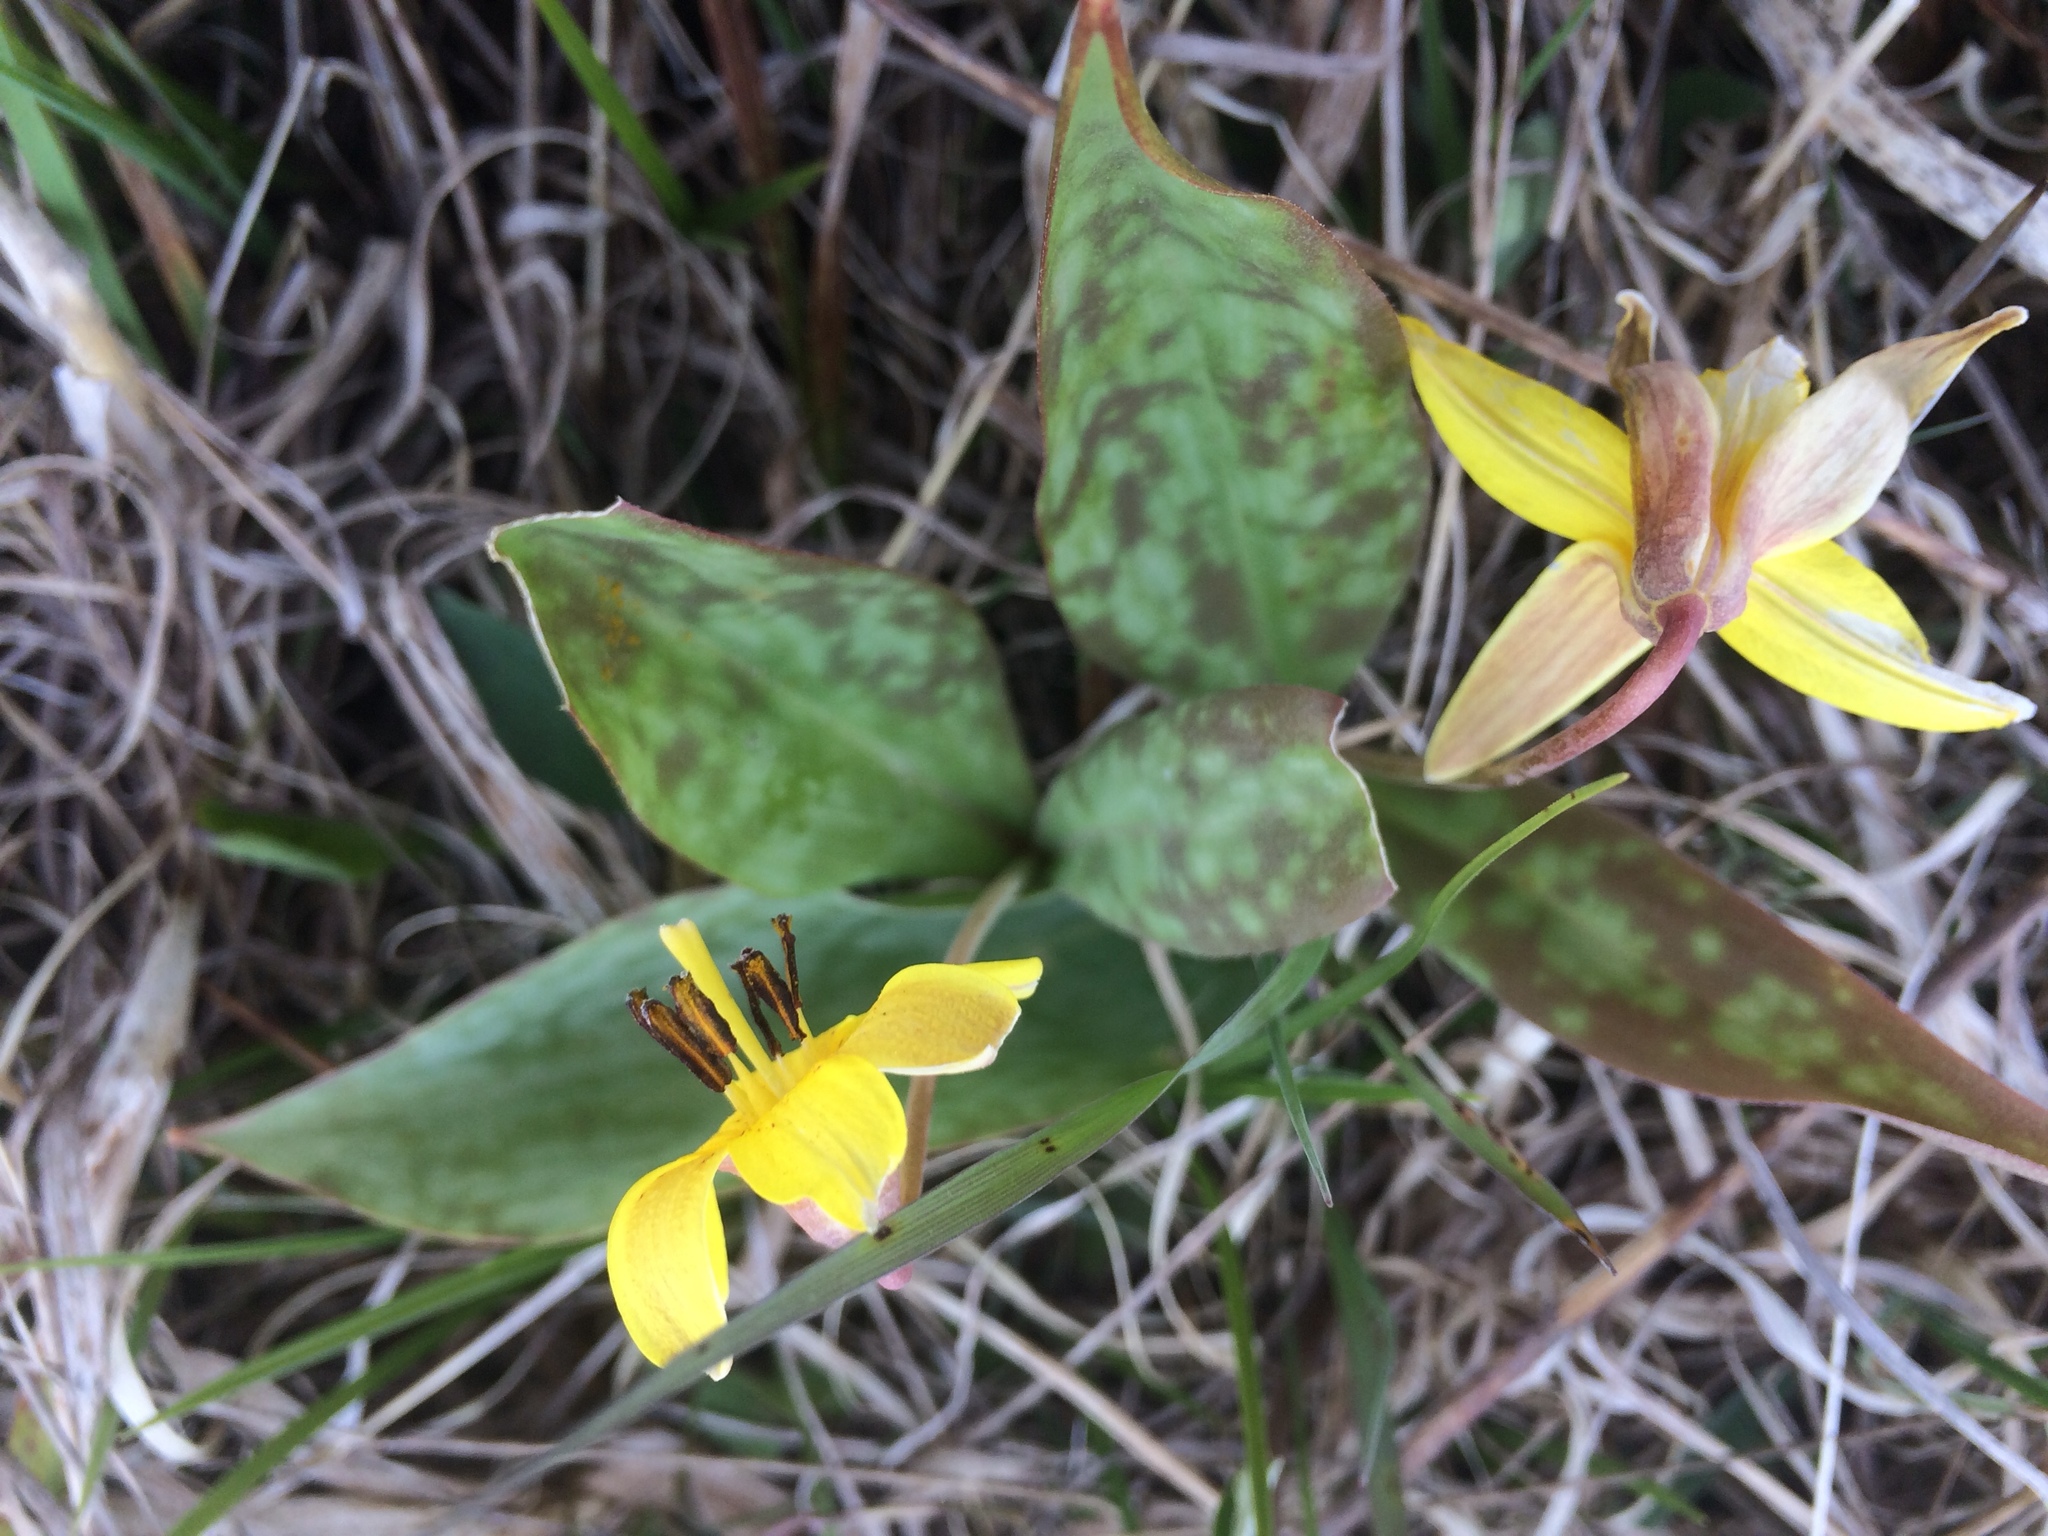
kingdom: Plantae
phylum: Tracheophyta
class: Liliopsida
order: Liliales
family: Liliaceae
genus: Erythronium
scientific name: Erythronium americanum
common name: Yellow adder's-tongue
